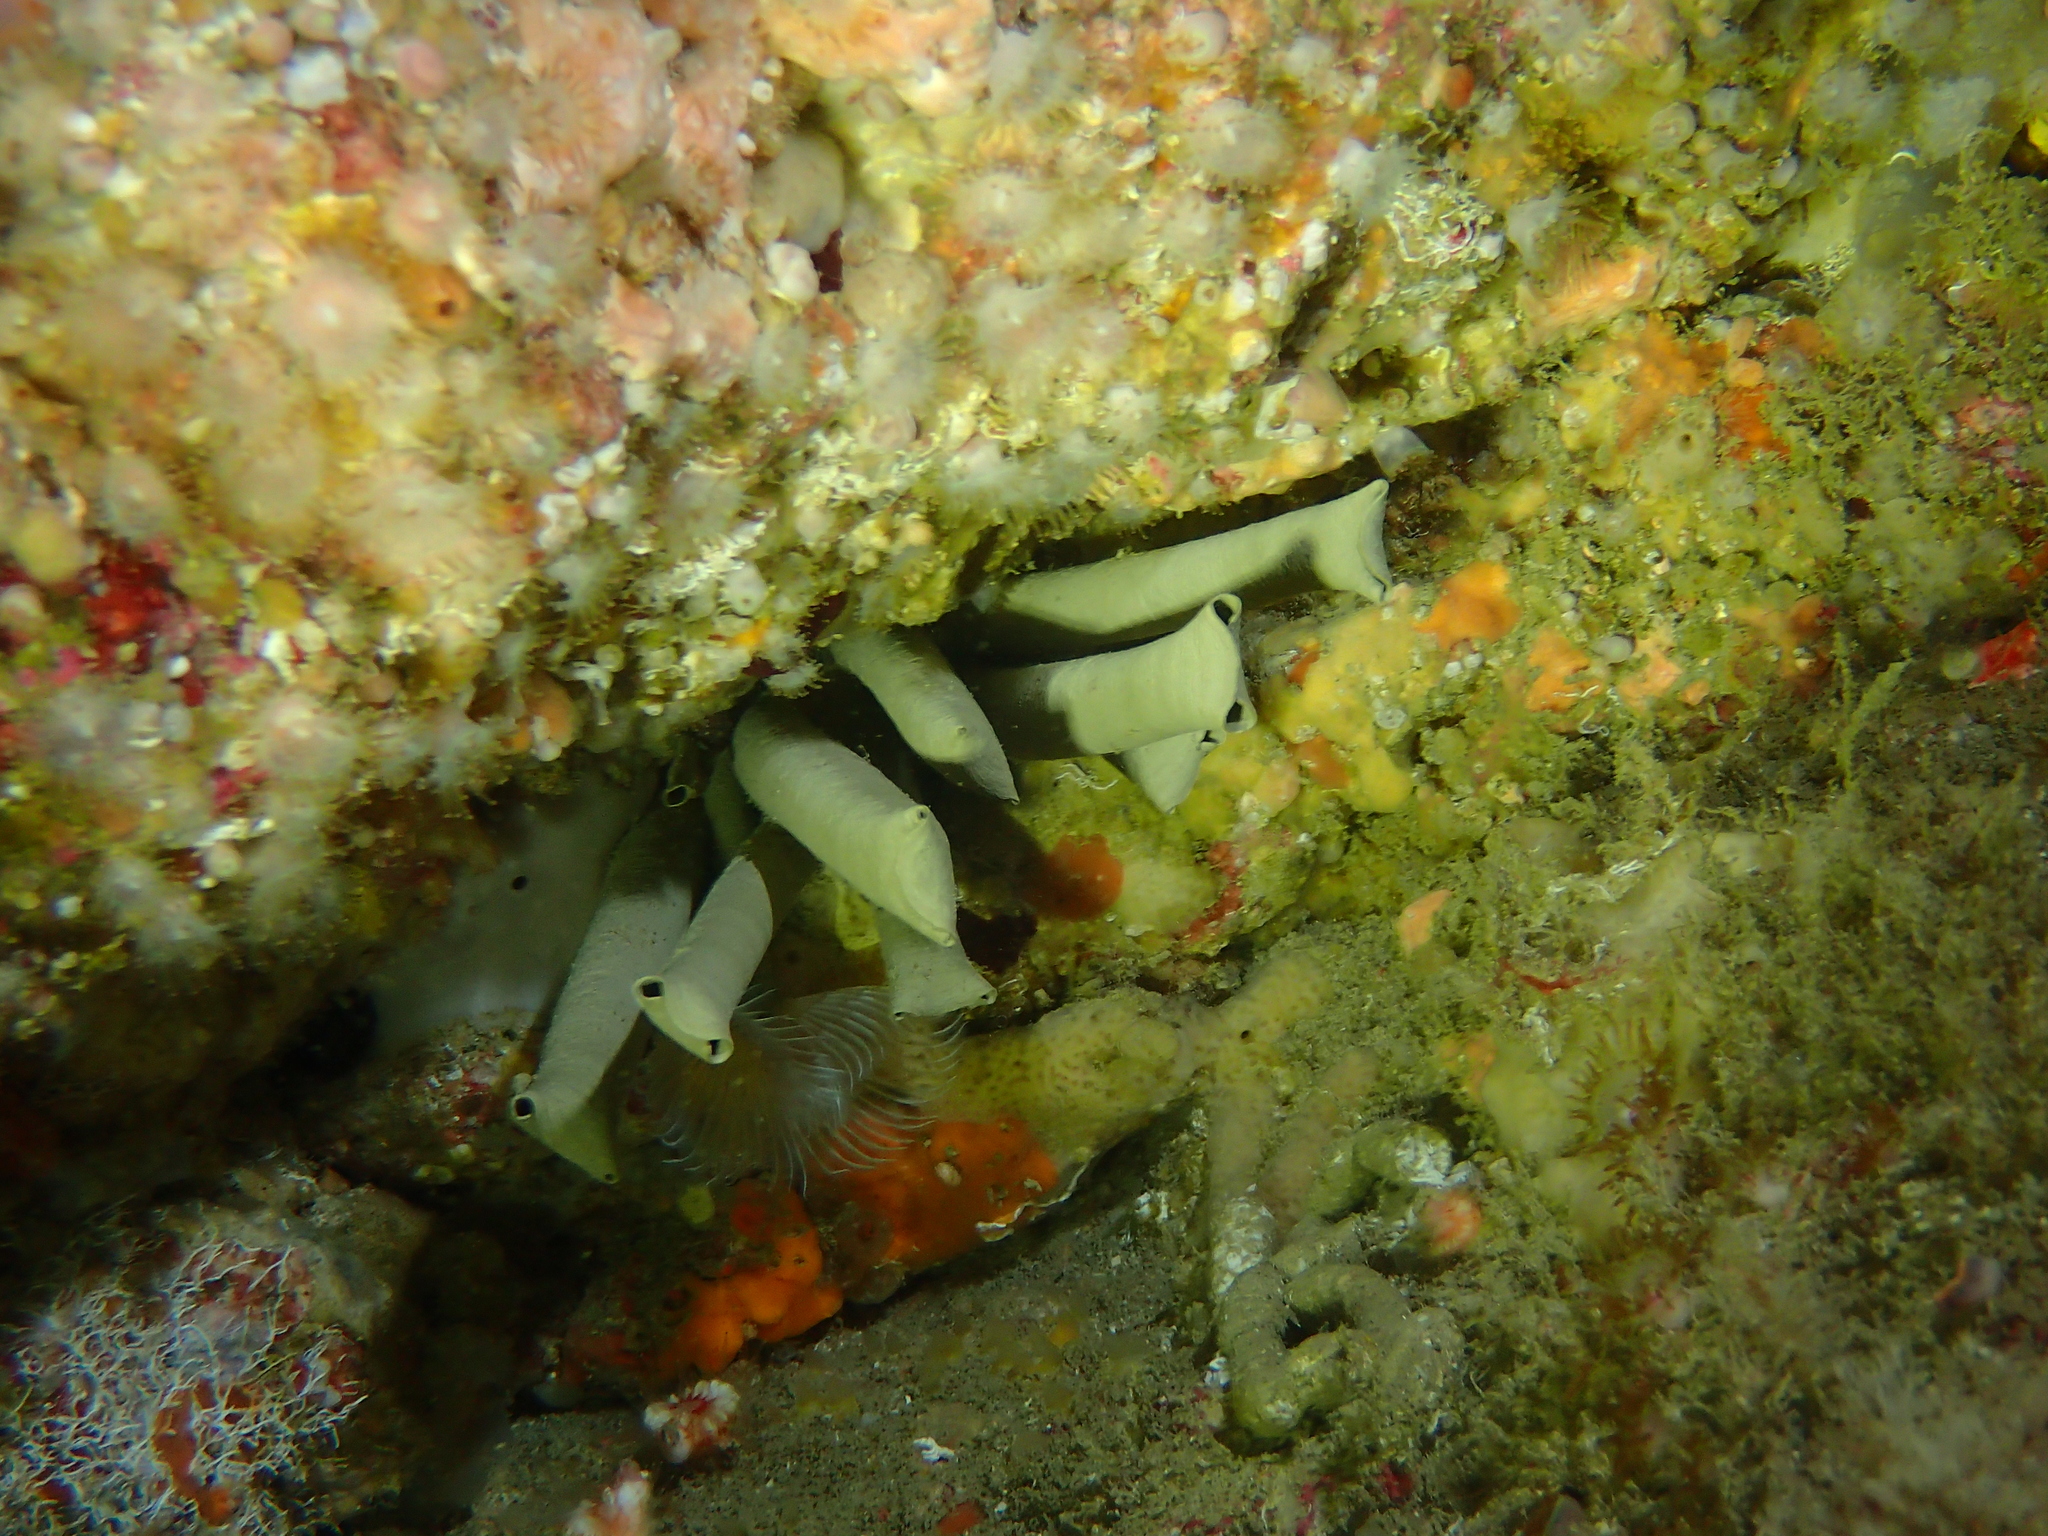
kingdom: Animalia
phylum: Annelida
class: Polychaeta
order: Sabellida
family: Sabellidae
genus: Bispira
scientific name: Bispira volutacornis
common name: Twin fan worm
